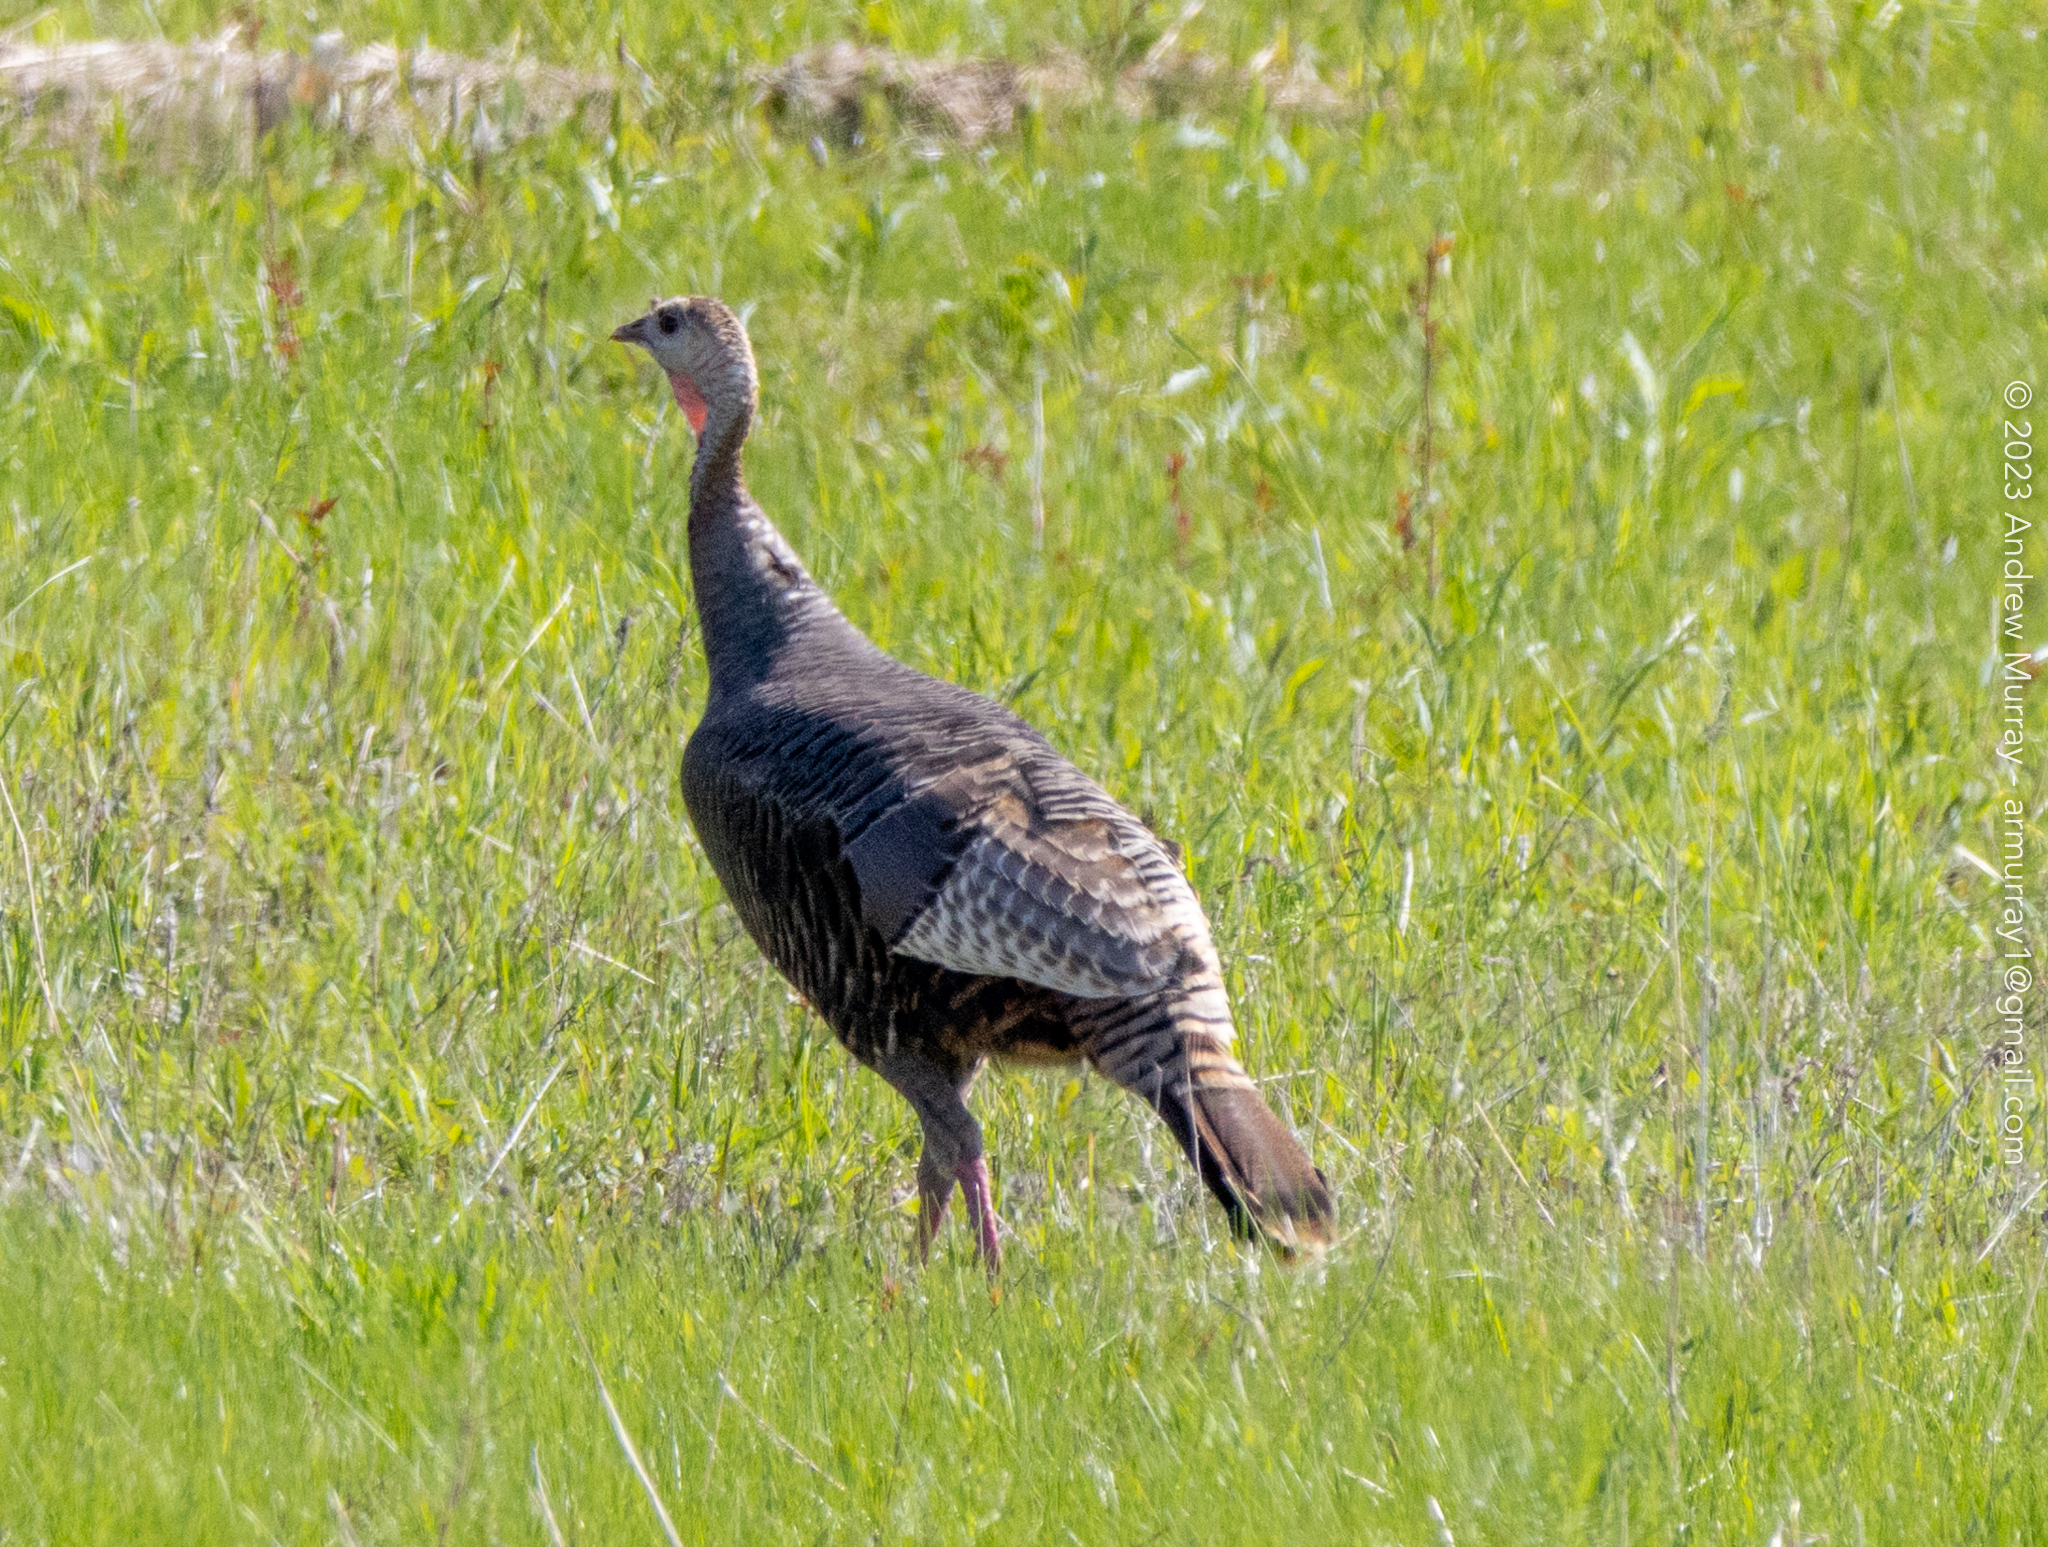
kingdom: Animalia
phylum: Chordata
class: Aves
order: Galliformes
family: Phasianidae
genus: Meleagris
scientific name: Meleagris gallopavo
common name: Wild turkey
